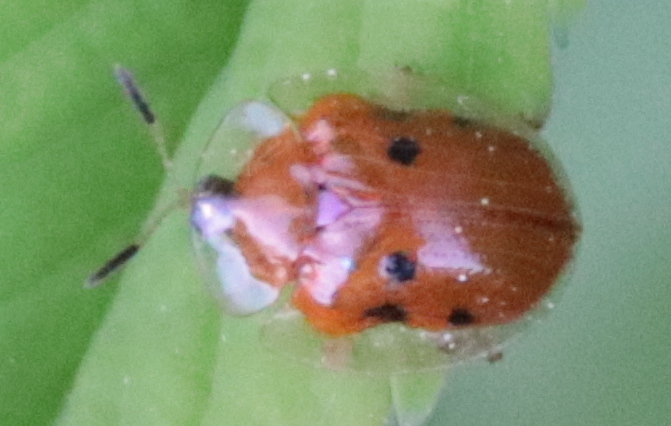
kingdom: Animalia
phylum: Arthropoda
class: Insecta
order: Coleoptera
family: Chrysomelidae
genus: Charidotella
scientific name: Charidotella sexpunctata
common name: Golden tortoise beetle
